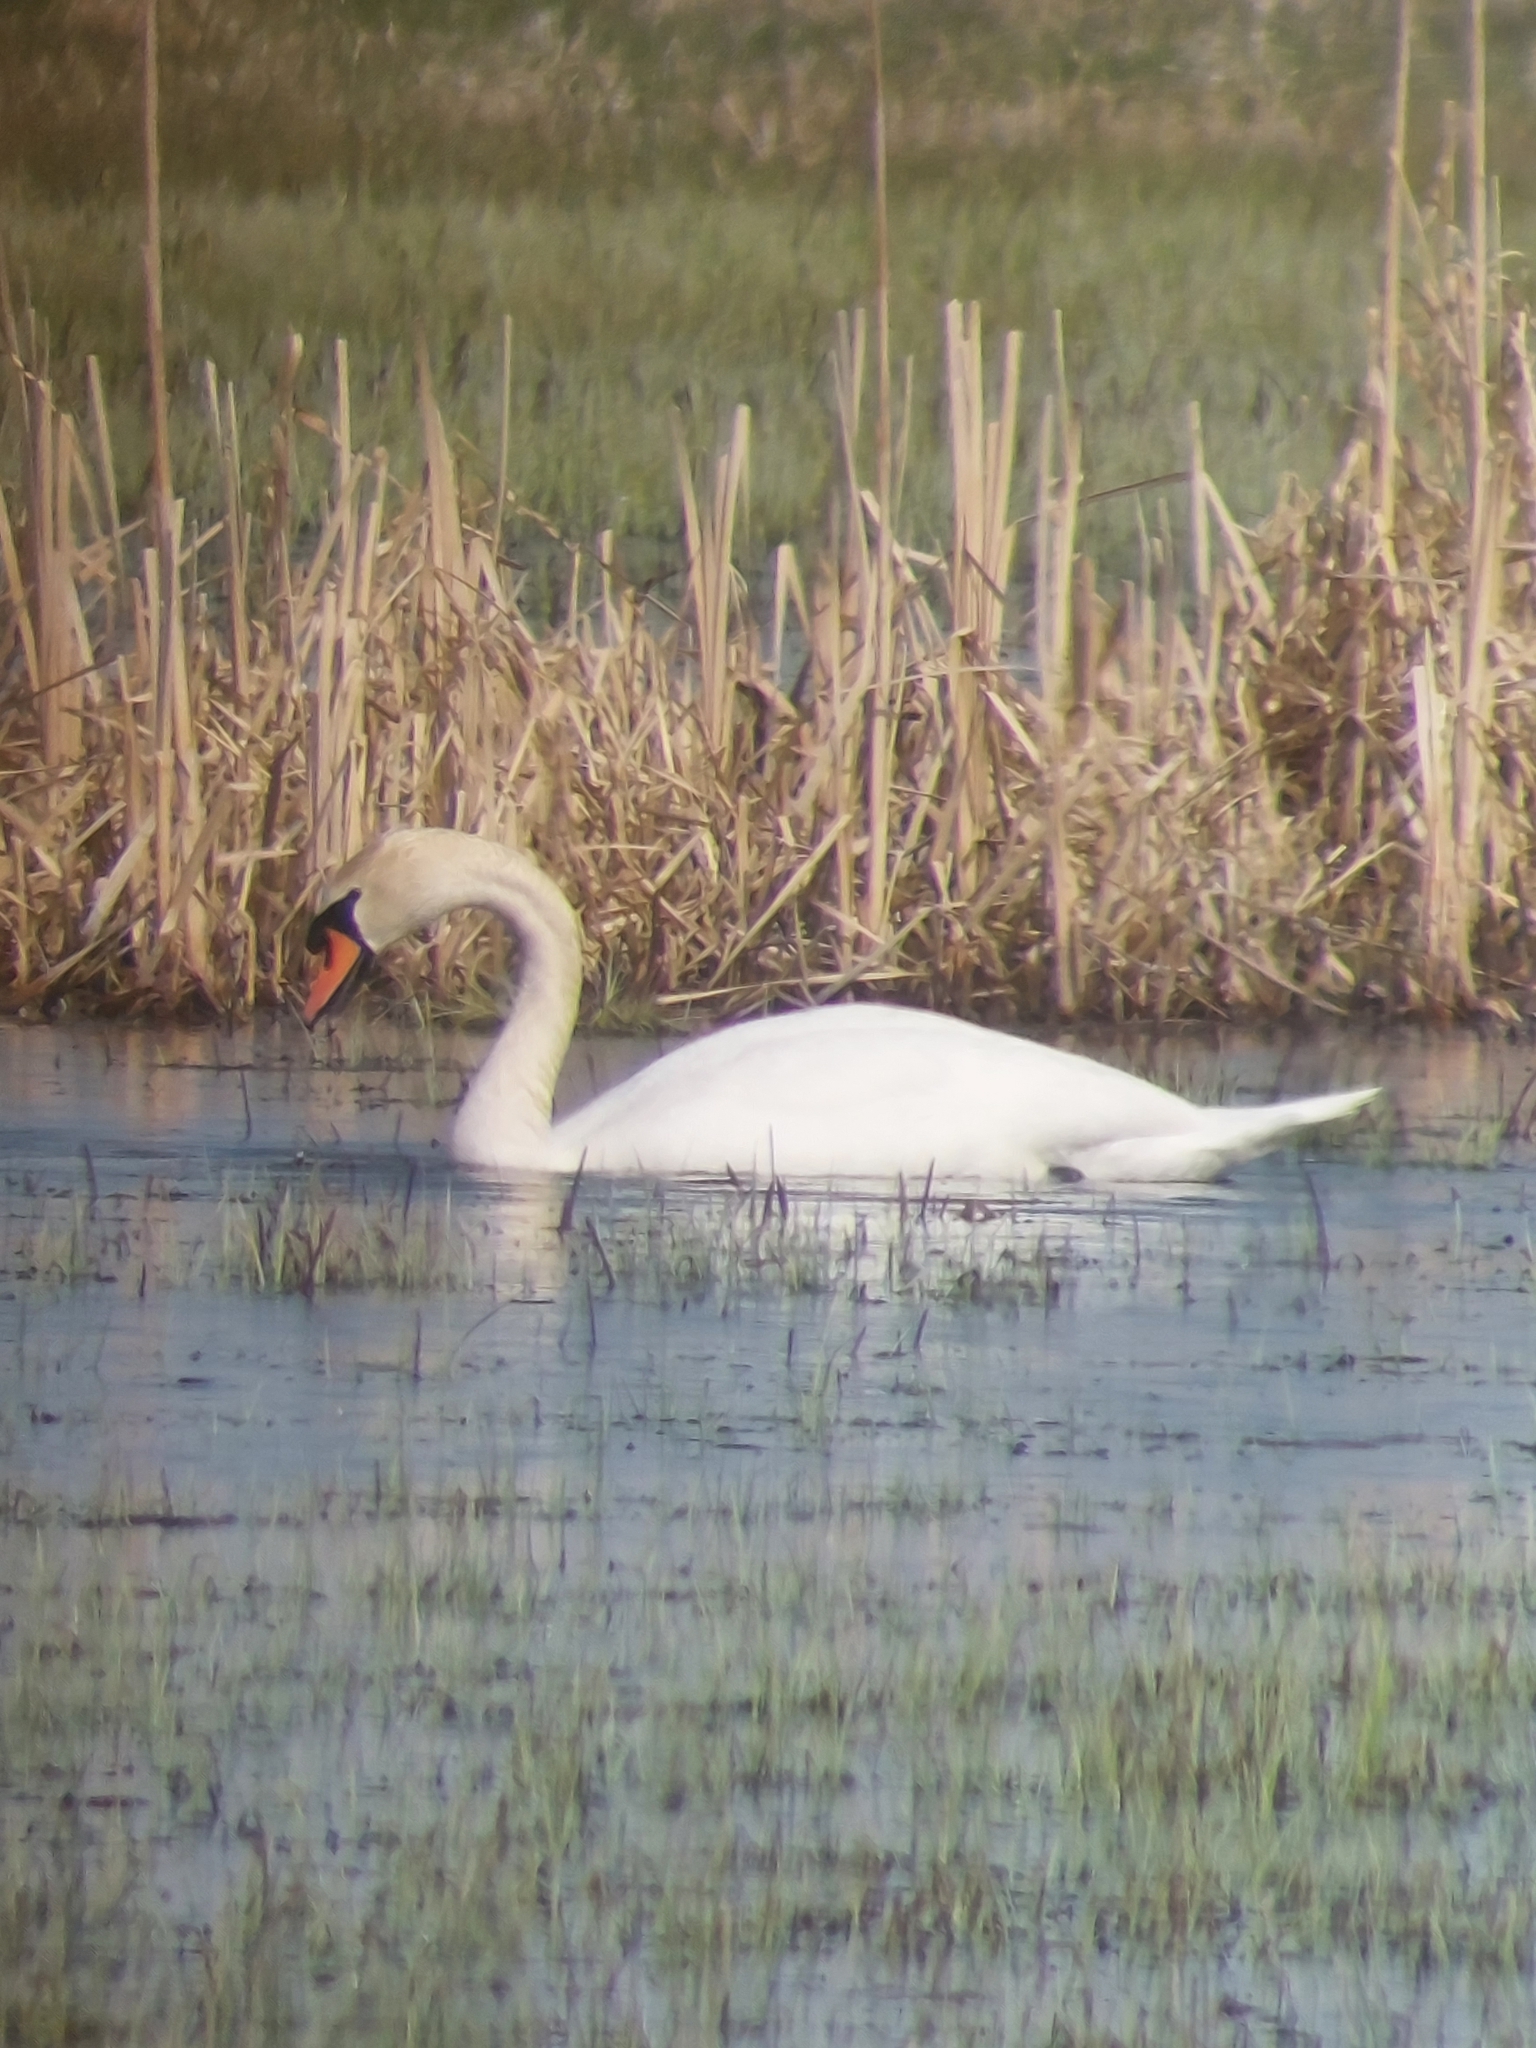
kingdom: Animalia
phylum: Chordata
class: Aves
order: Anseriformes
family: Anatidae
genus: Cygnus
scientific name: Cygnus olor
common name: Mute swan
